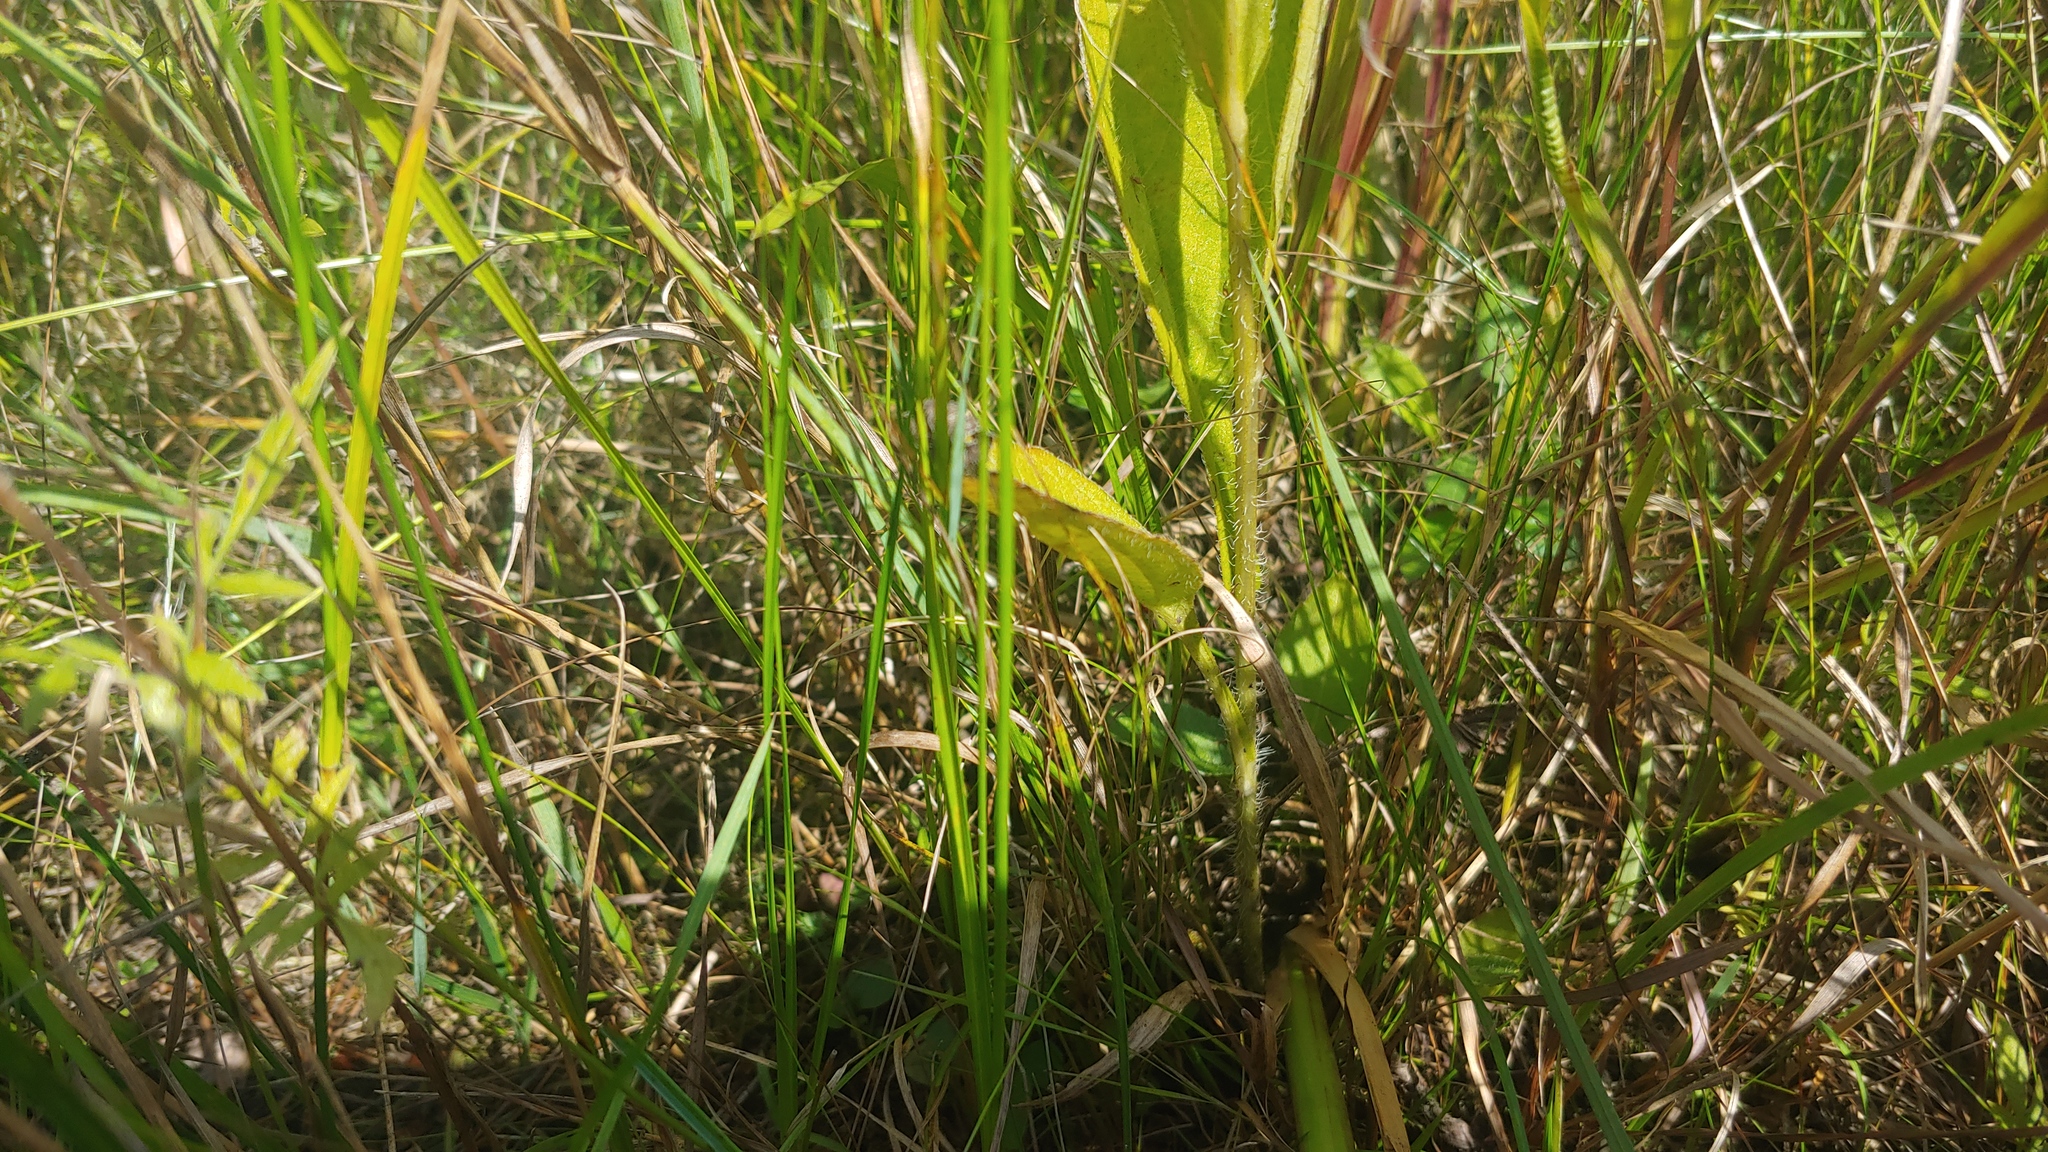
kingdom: Plantae
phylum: Tracheophyta
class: Magnoliopsida
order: Asterales
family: Asteraceae
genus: Rudbeckia
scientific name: Rudbeckia hirta
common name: Black-eyed-susan
